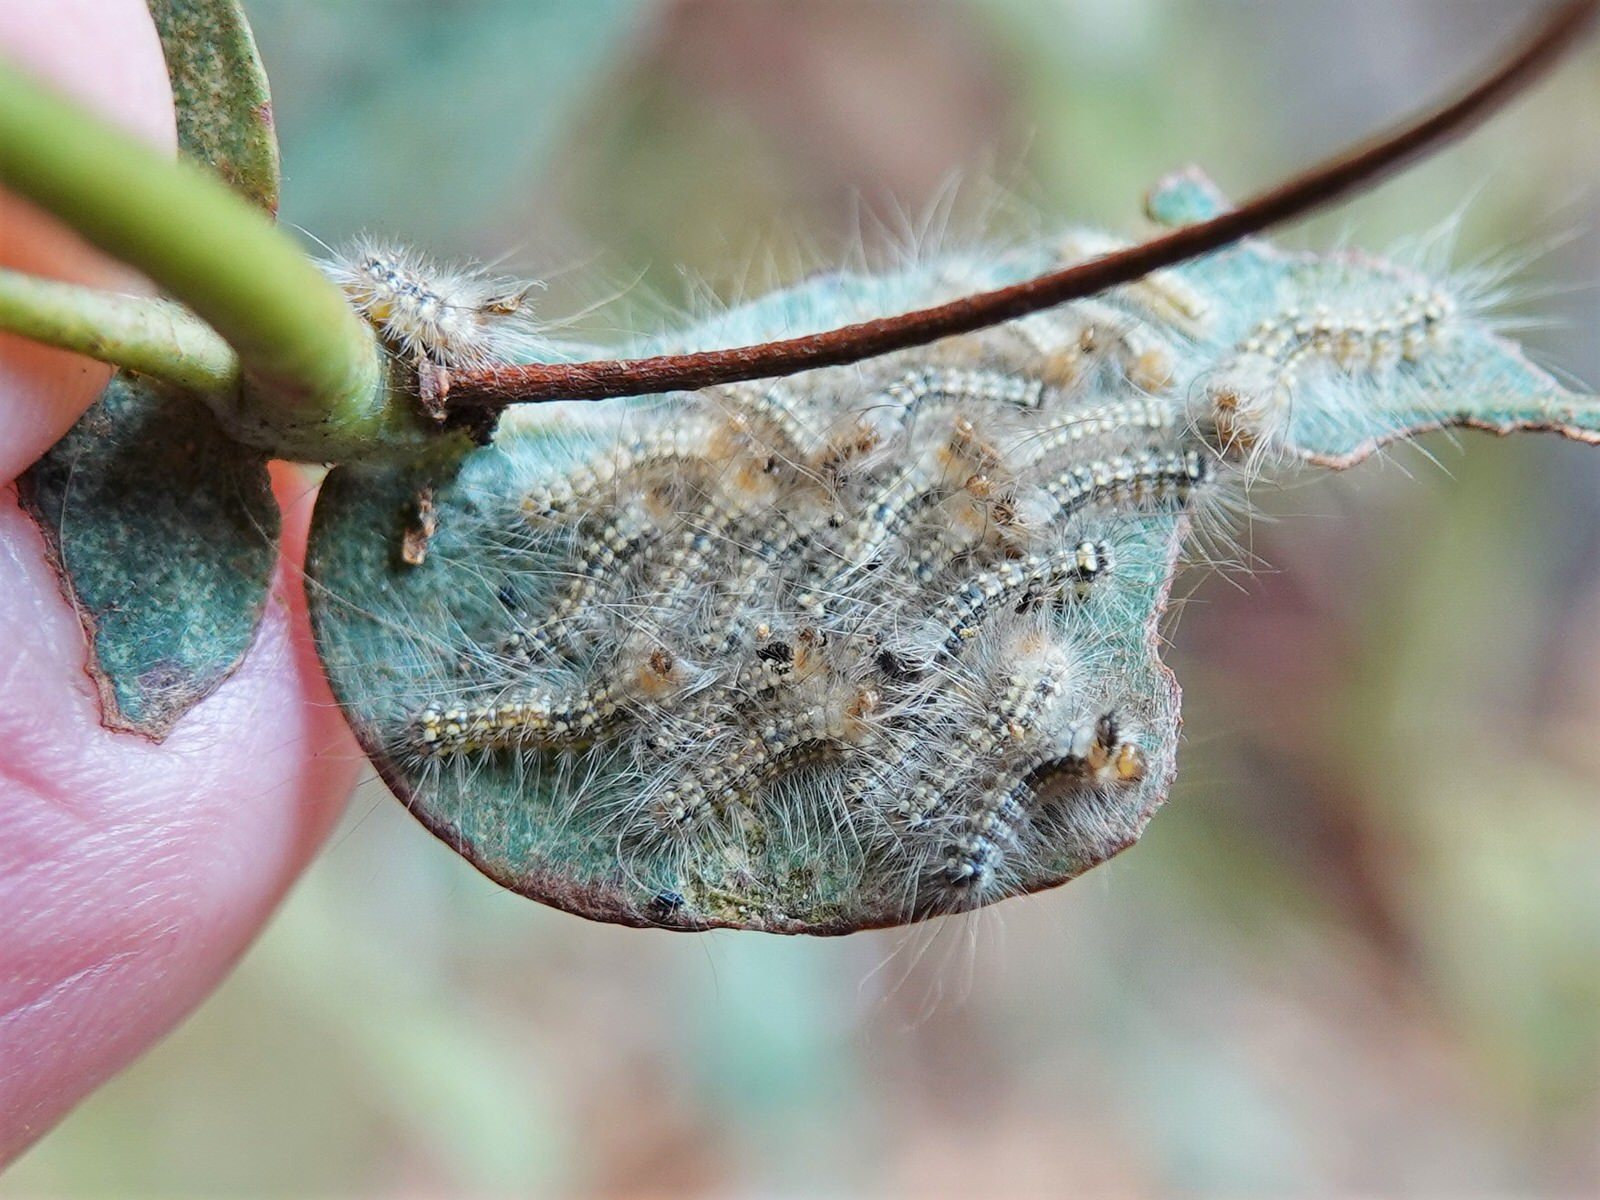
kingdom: Animalia
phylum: Arthropoda
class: Insecta
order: Lepidoptera
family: Nolidae
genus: Uraba
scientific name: Uraba lugens
